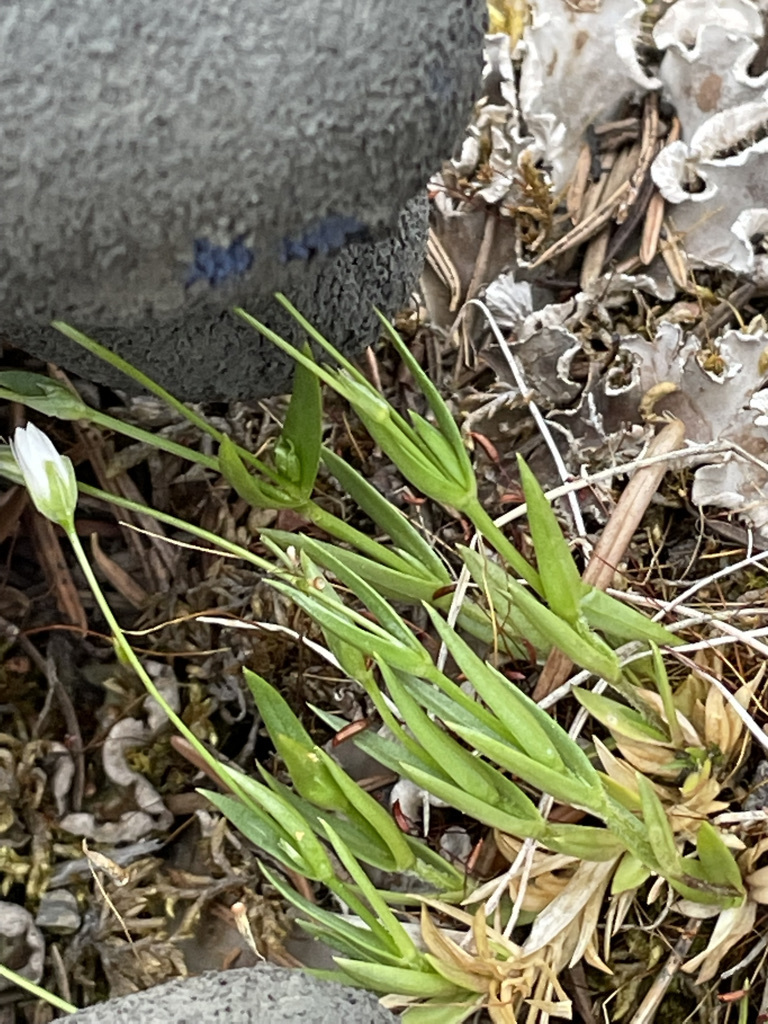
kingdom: Plantae
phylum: Tracheophyta
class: Magnoliopsida
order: Caryophyllales
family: Caryophyllaceae
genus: Stellaria
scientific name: Stellaria longipes
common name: Goldie's starwort
